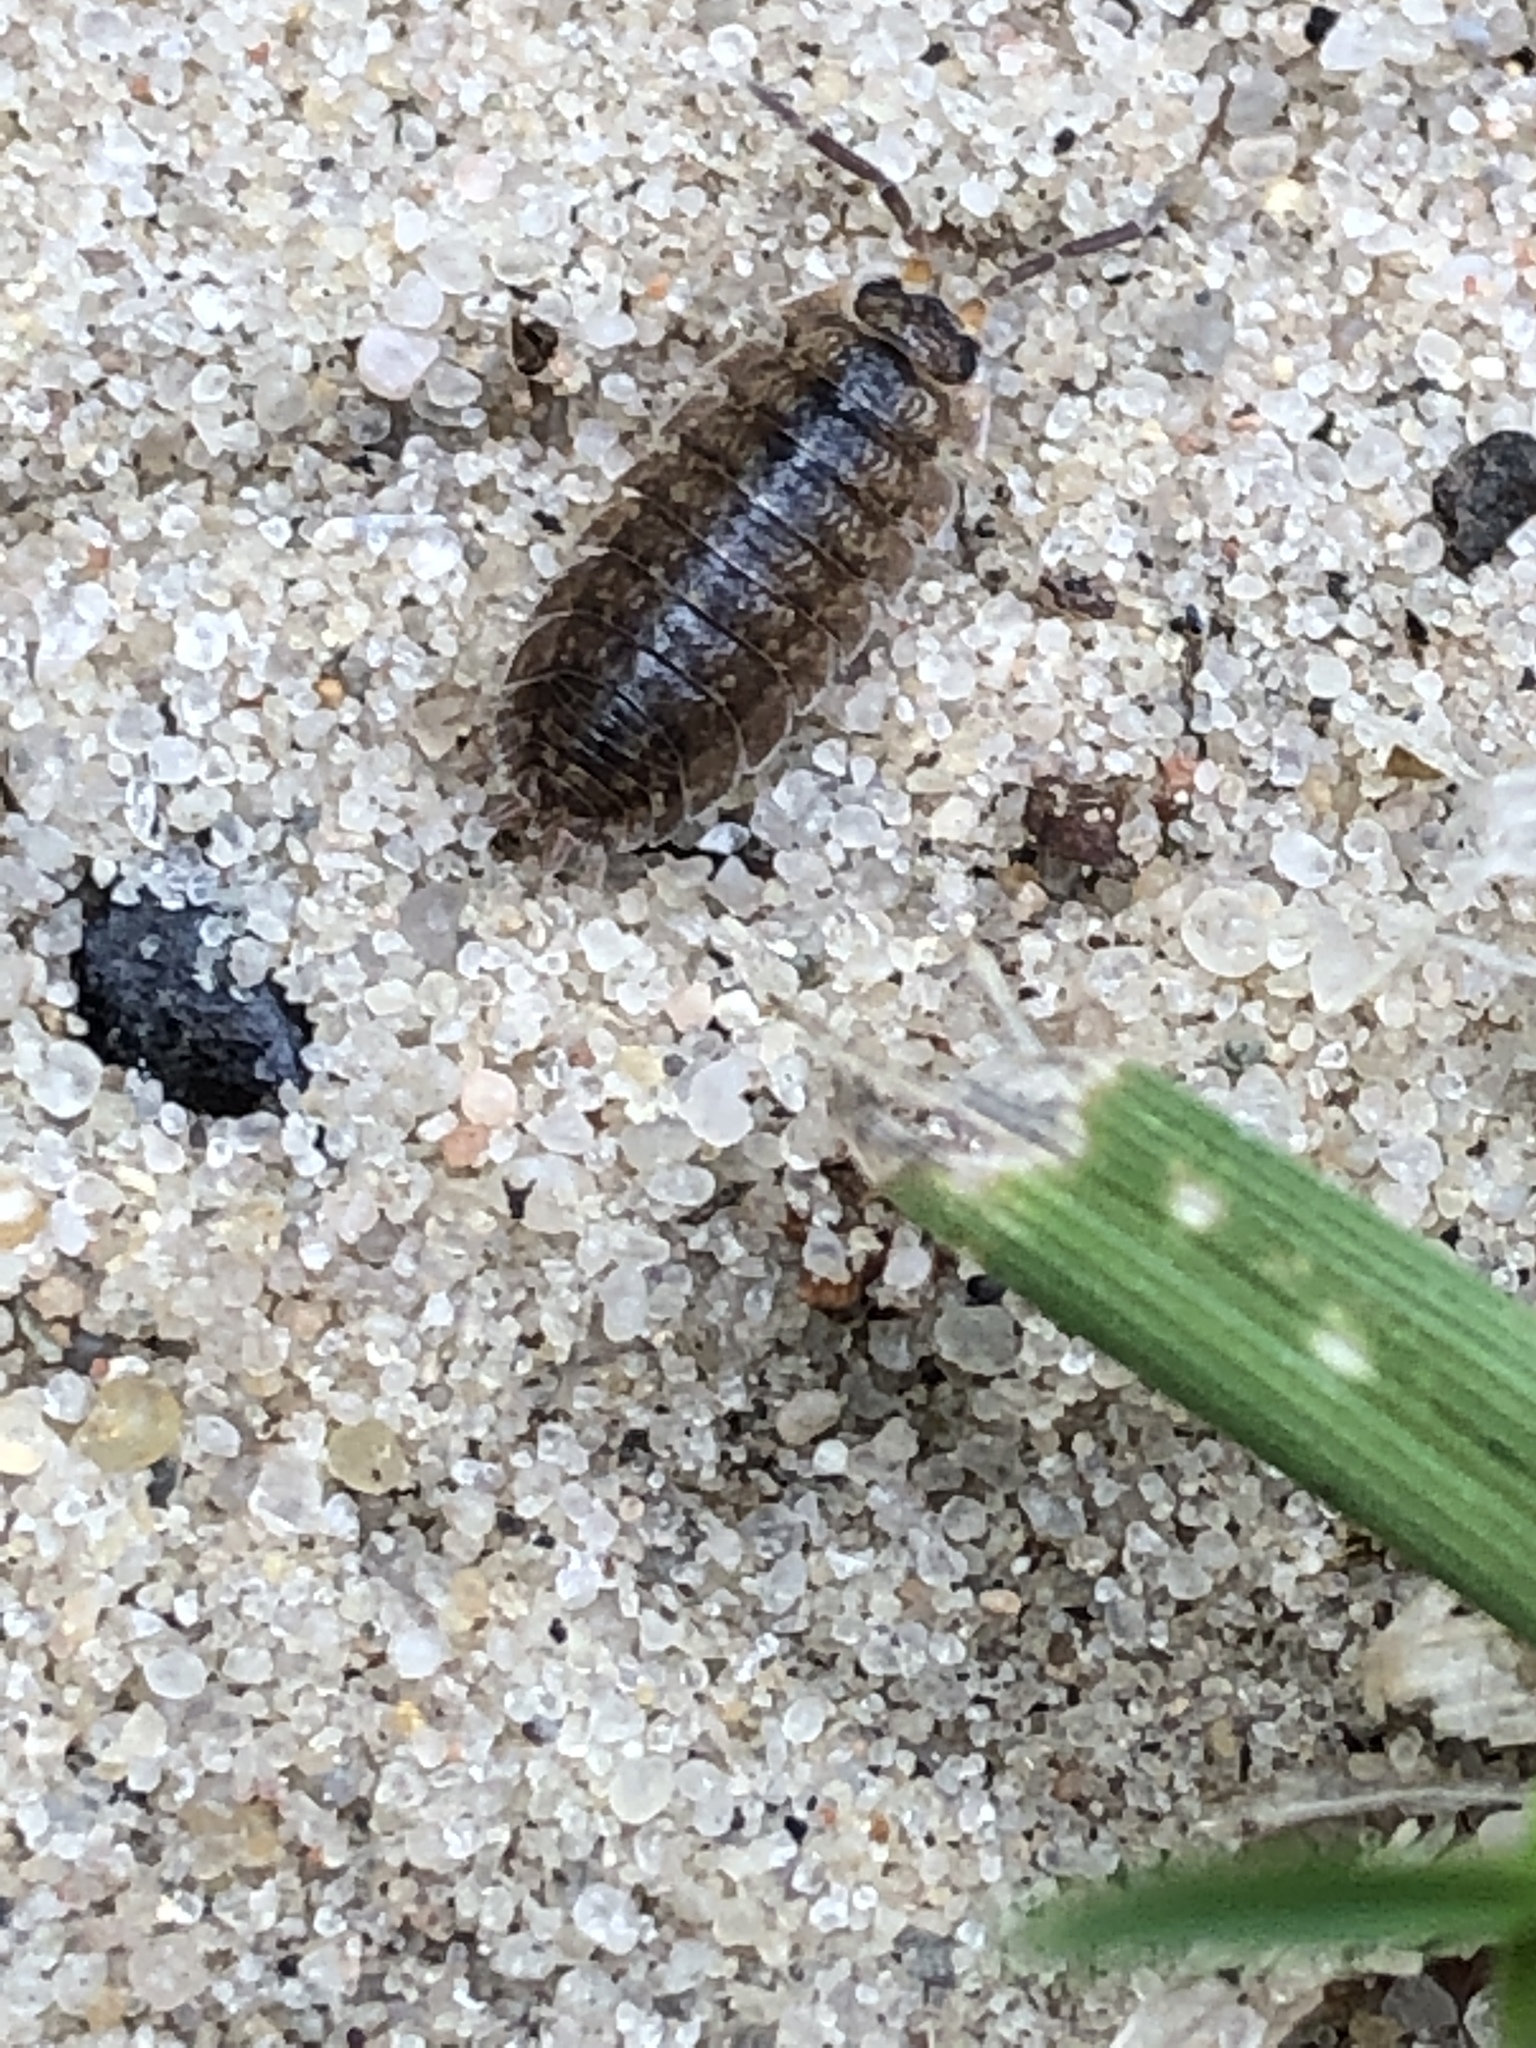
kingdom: Animalia
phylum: Arthropoda
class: Malacostraca
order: Isopoda
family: Porcellionidae
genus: Porcellio
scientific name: Porcellio scaber
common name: Common rough woodlouse
